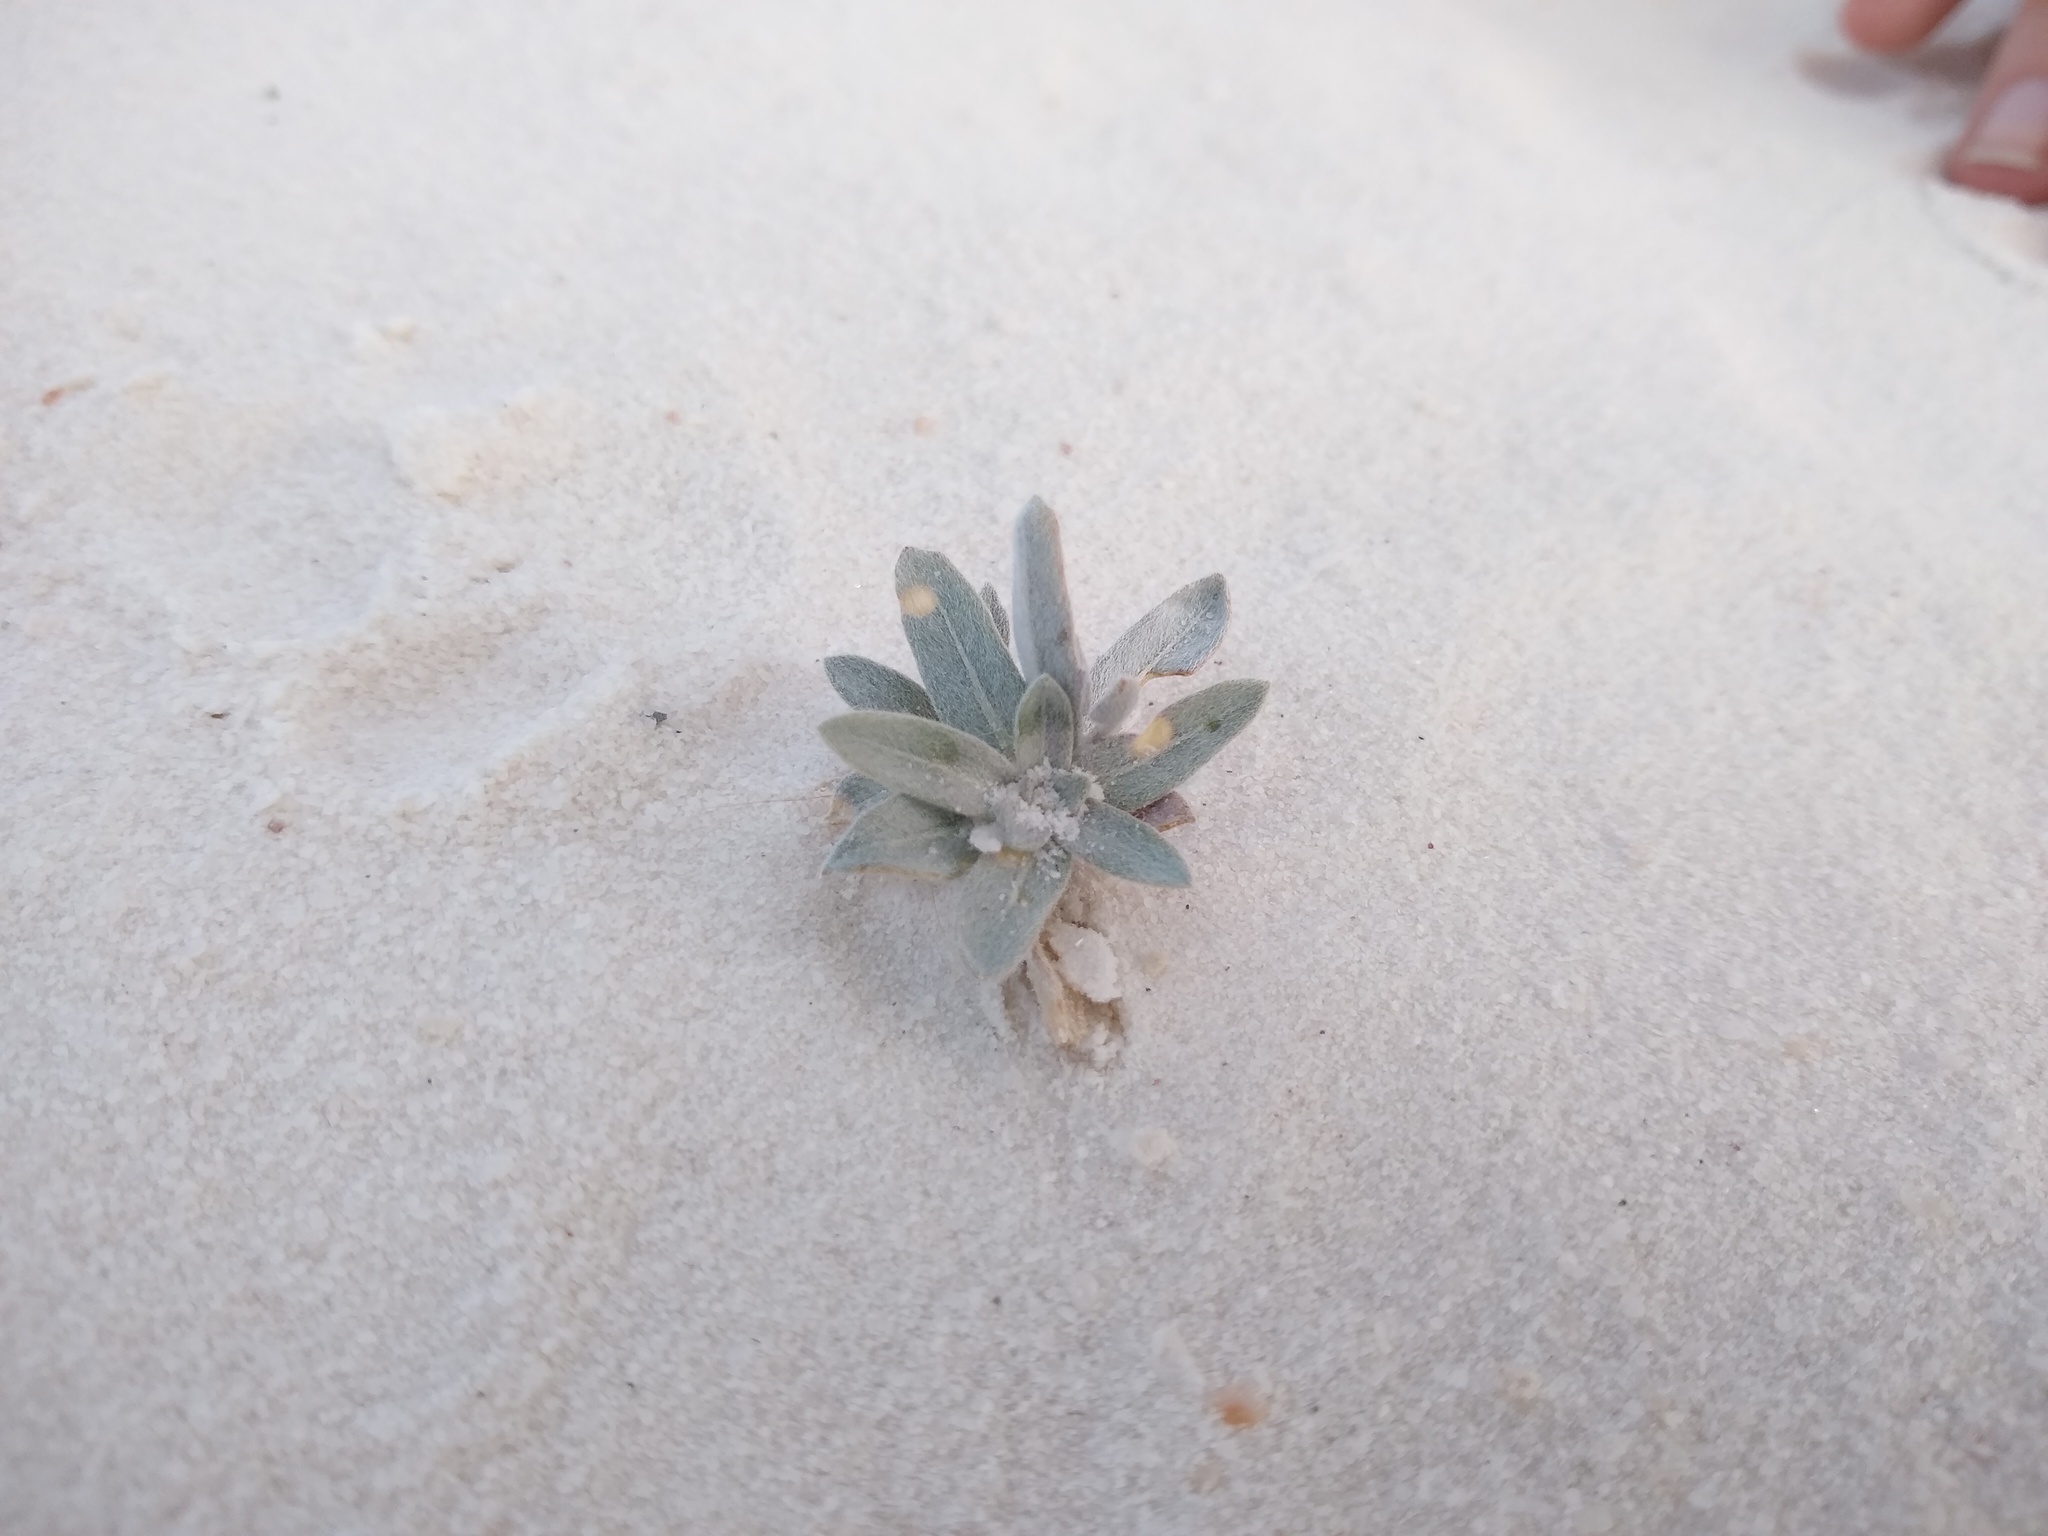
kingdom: Plantae
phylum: Tracheophyta
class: Magnoliopsida
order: Caryophyllales
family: Nyctaginaceae
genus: Abronia
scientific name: Abronia angustifolia
